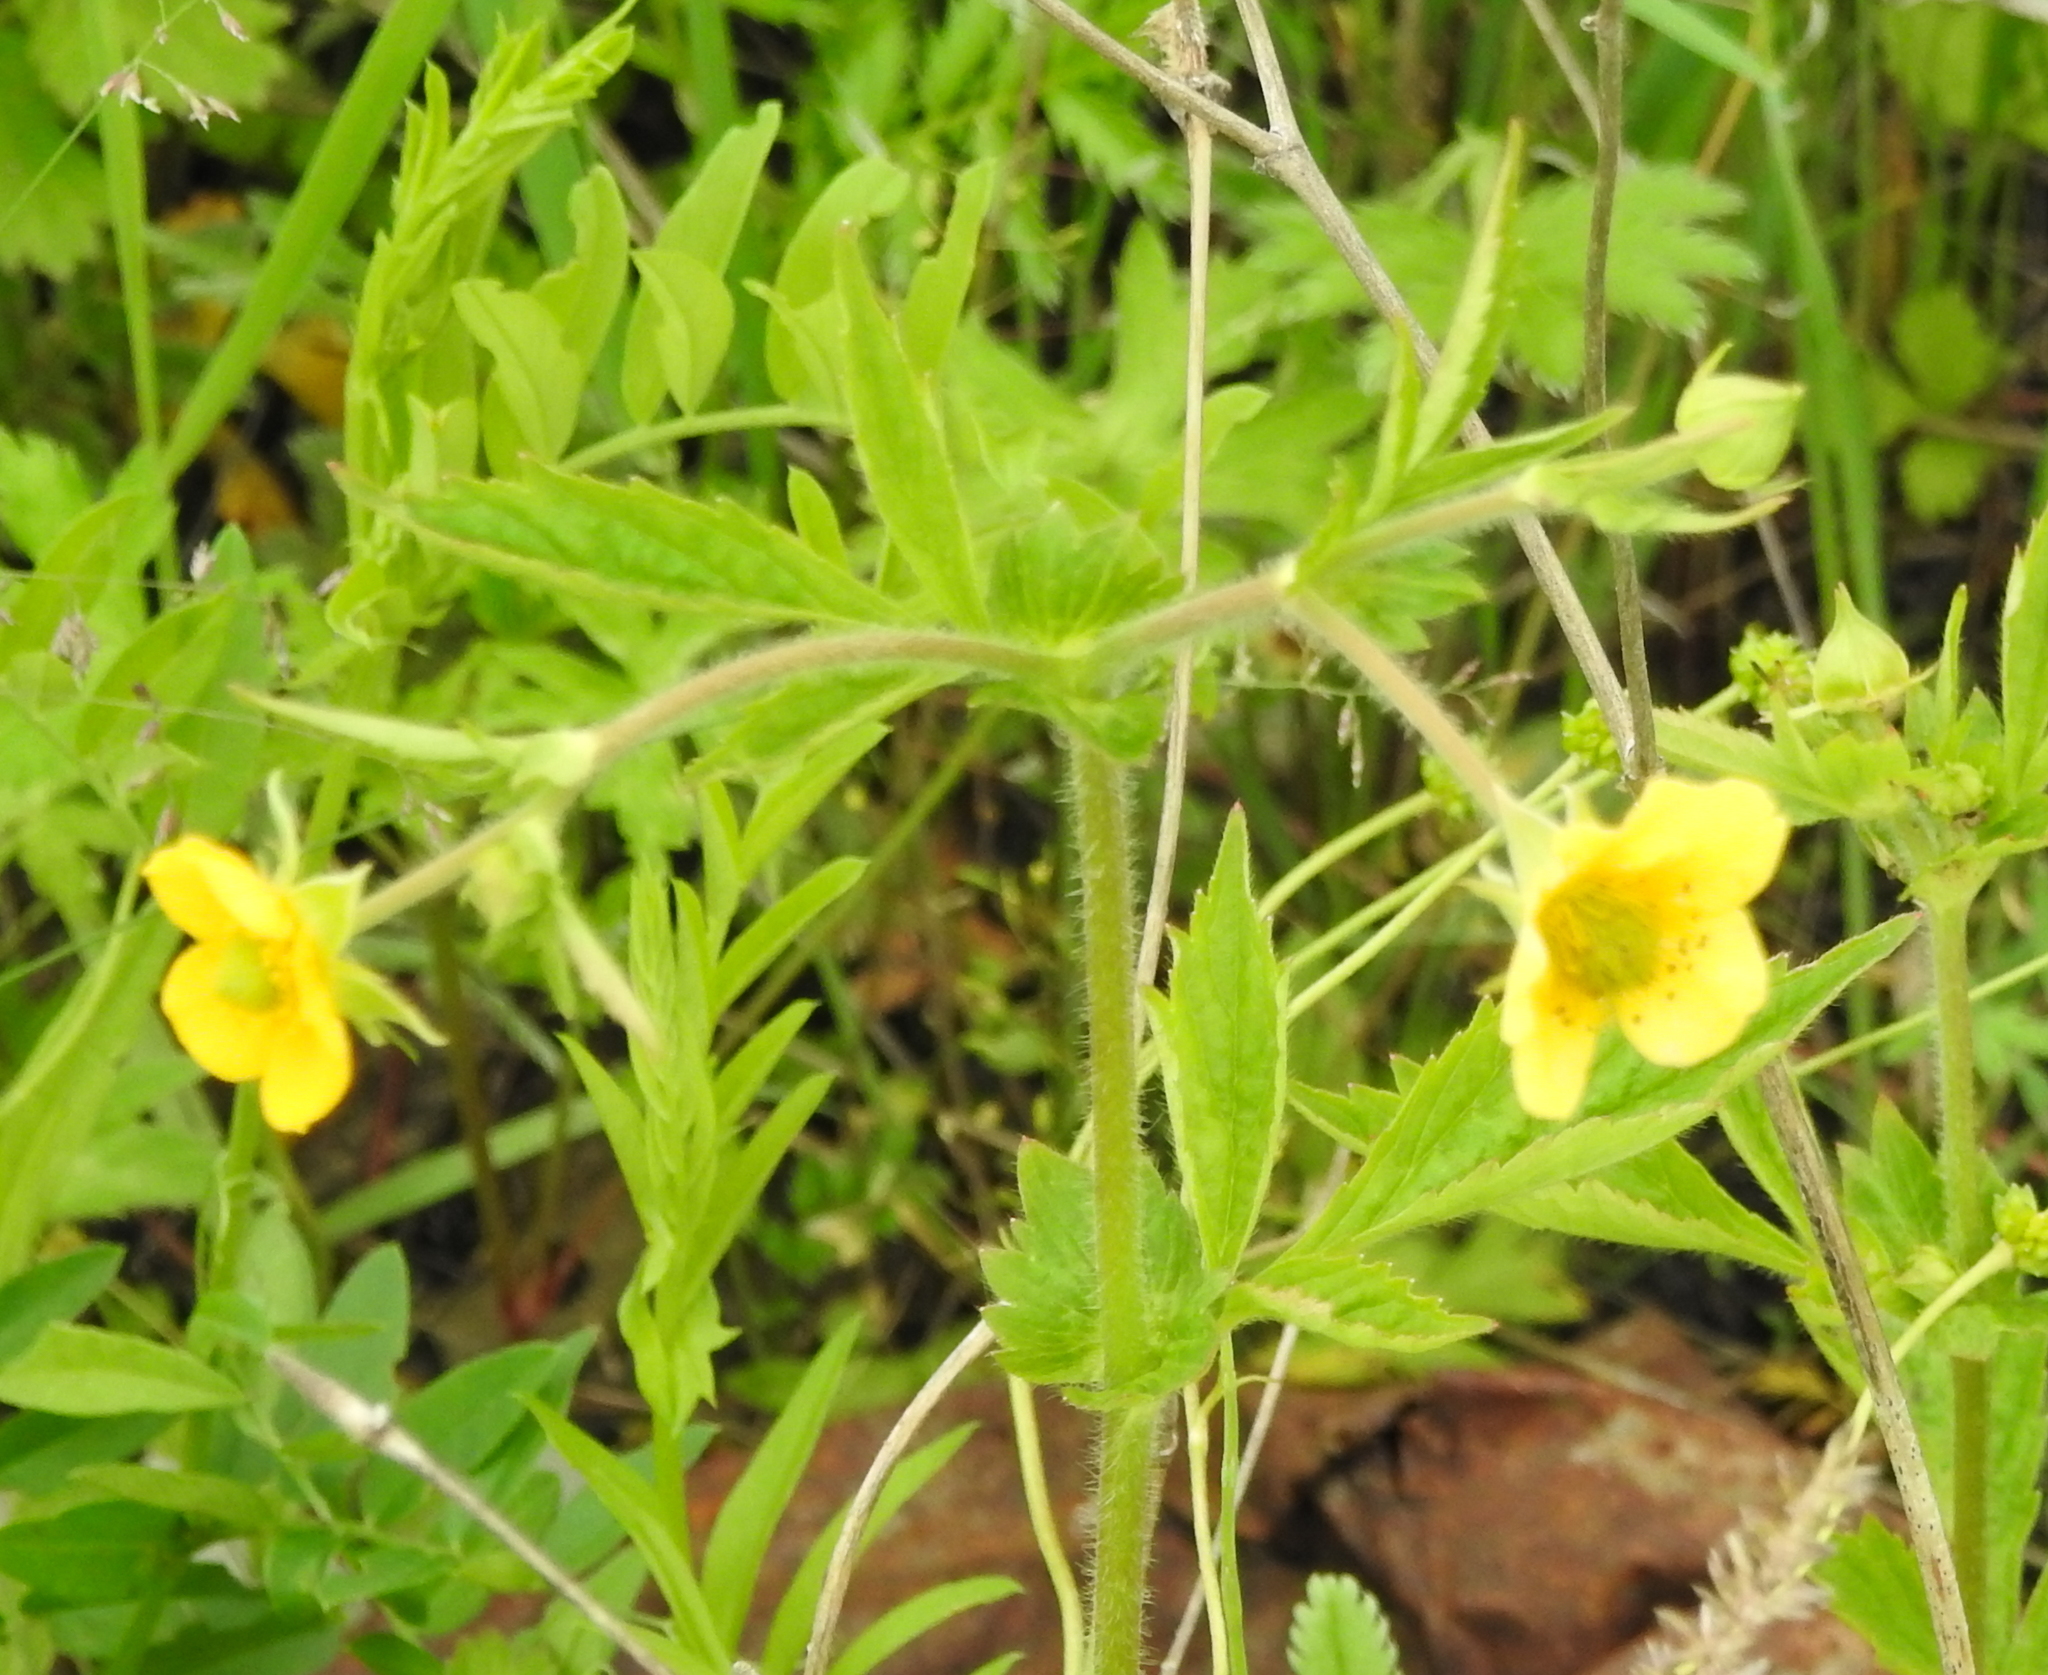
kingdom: Plantae
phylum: Tracheophyta
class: Magnoliopsida
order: Rosales
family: Rosaceae
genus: Geum
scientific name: Geum aleppicum
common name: Yellow avens
